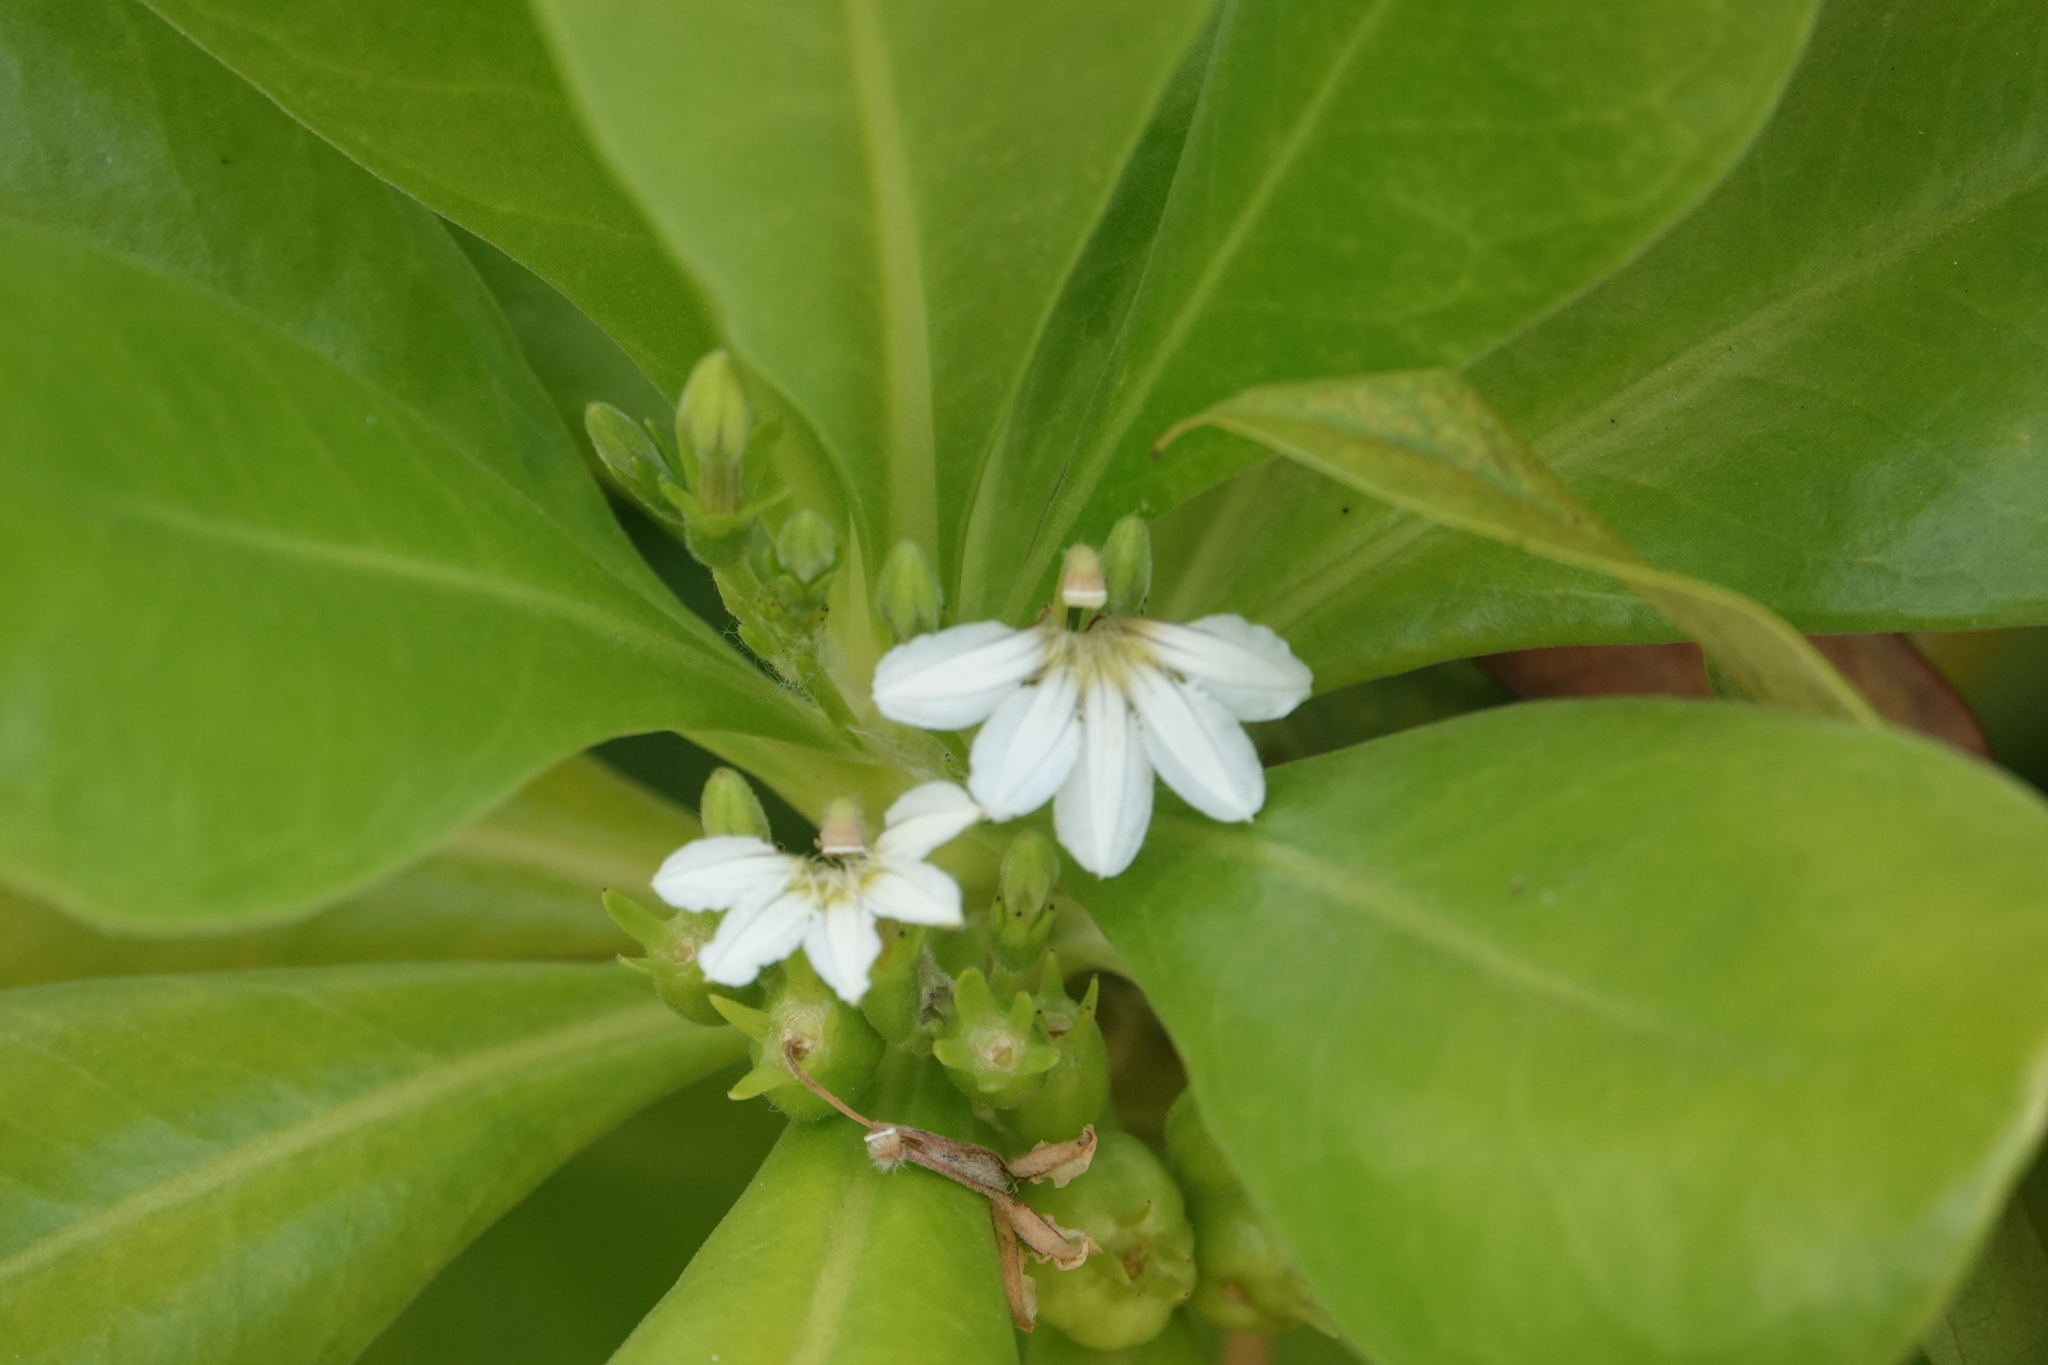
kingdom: Plantae
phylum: Tracheophyta
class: Magnoliopsida
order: Asterales
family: Goodeniaceae
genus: Scaevola
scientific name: Scaevola taccada
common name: Sea lettucetree
